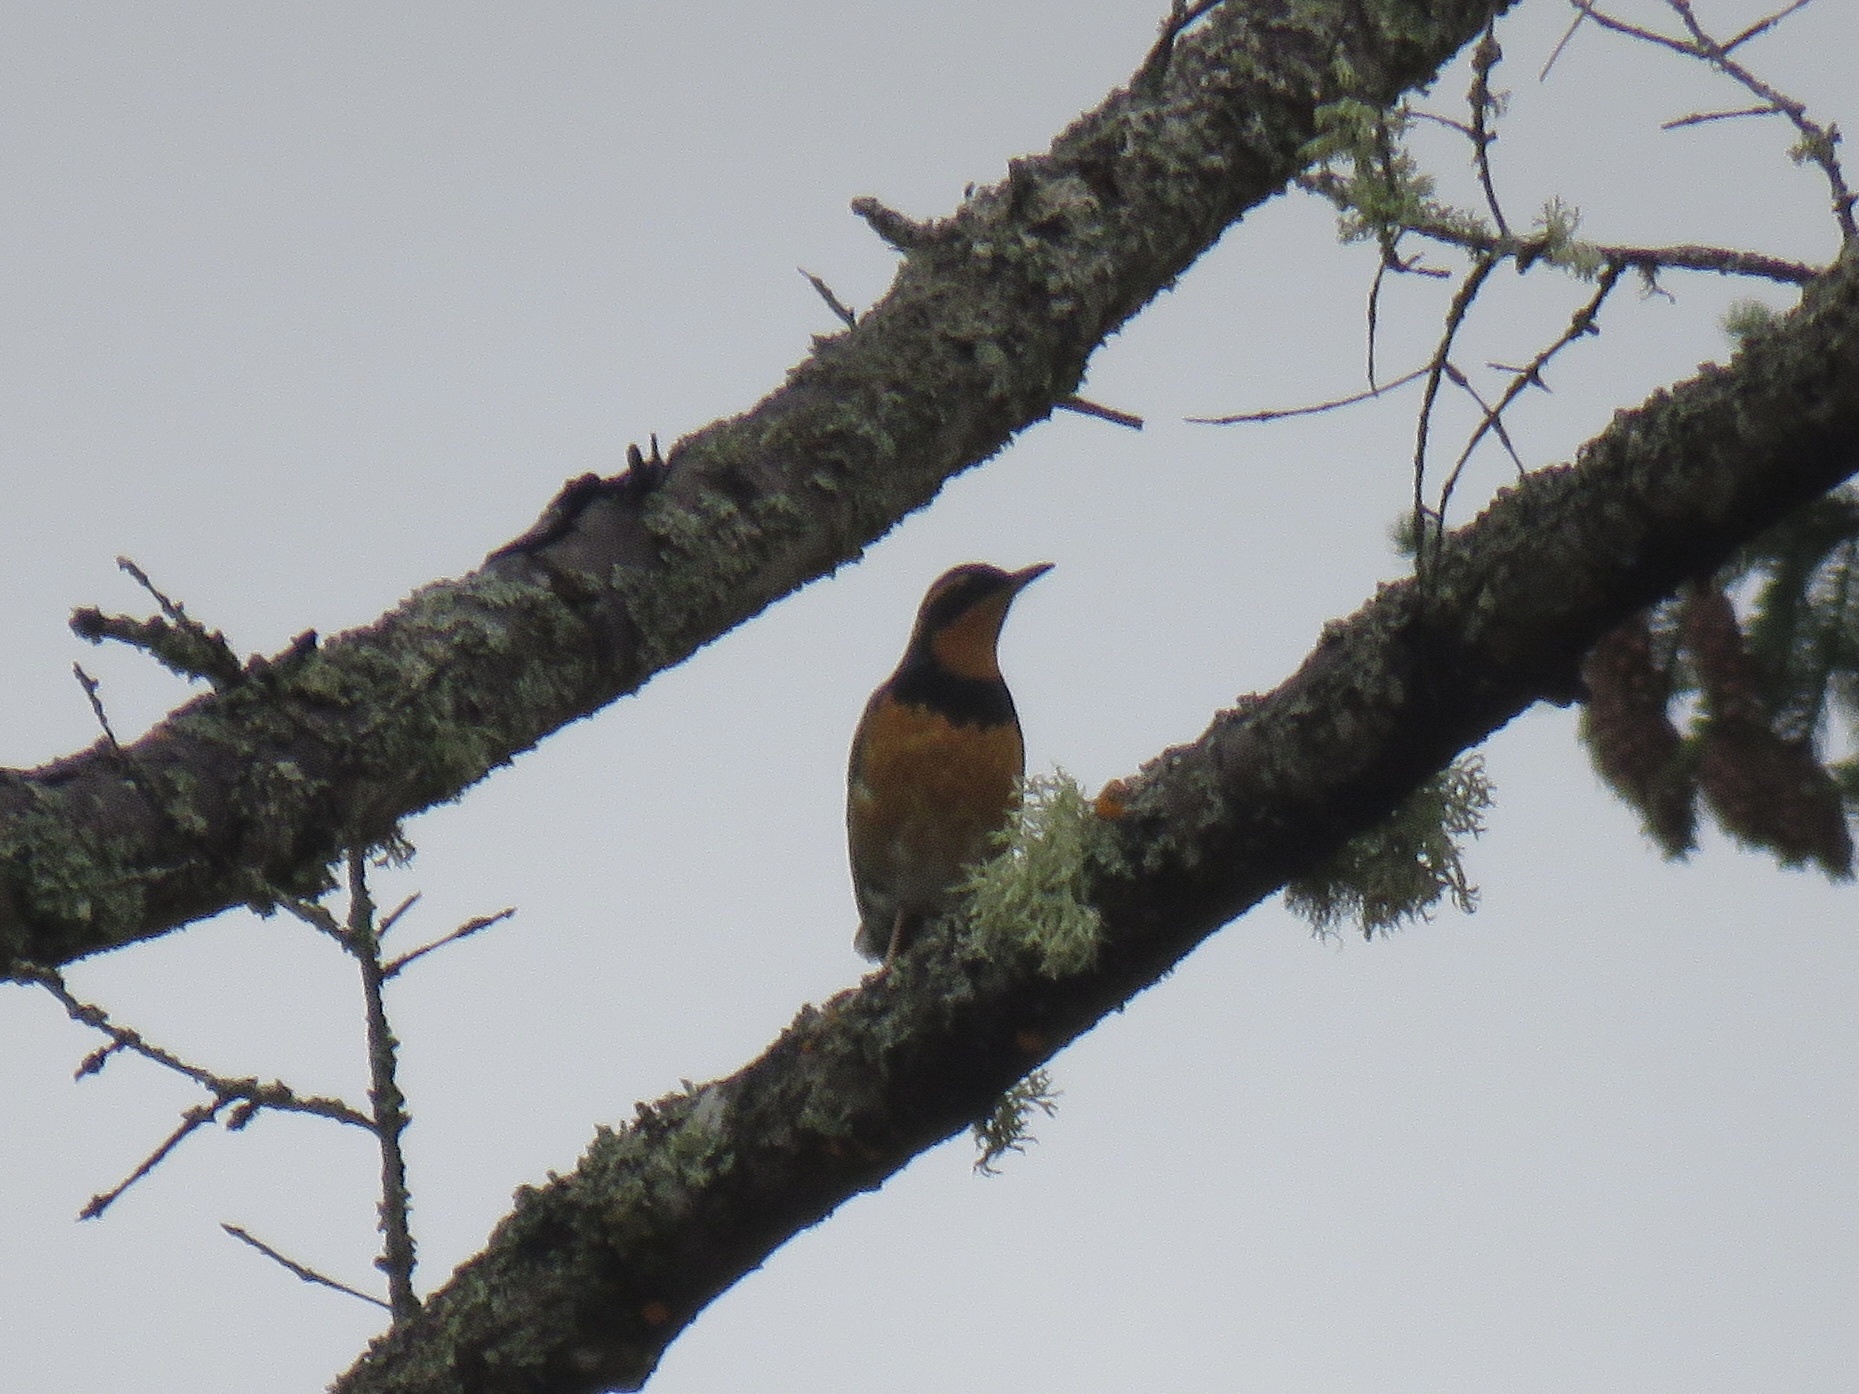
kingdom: Animalia
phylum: Chordata
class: Aves
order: Passeriformes
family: Turdidae
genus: Ixoreus
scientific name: Ixoreus naevius
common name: Varied thrush
